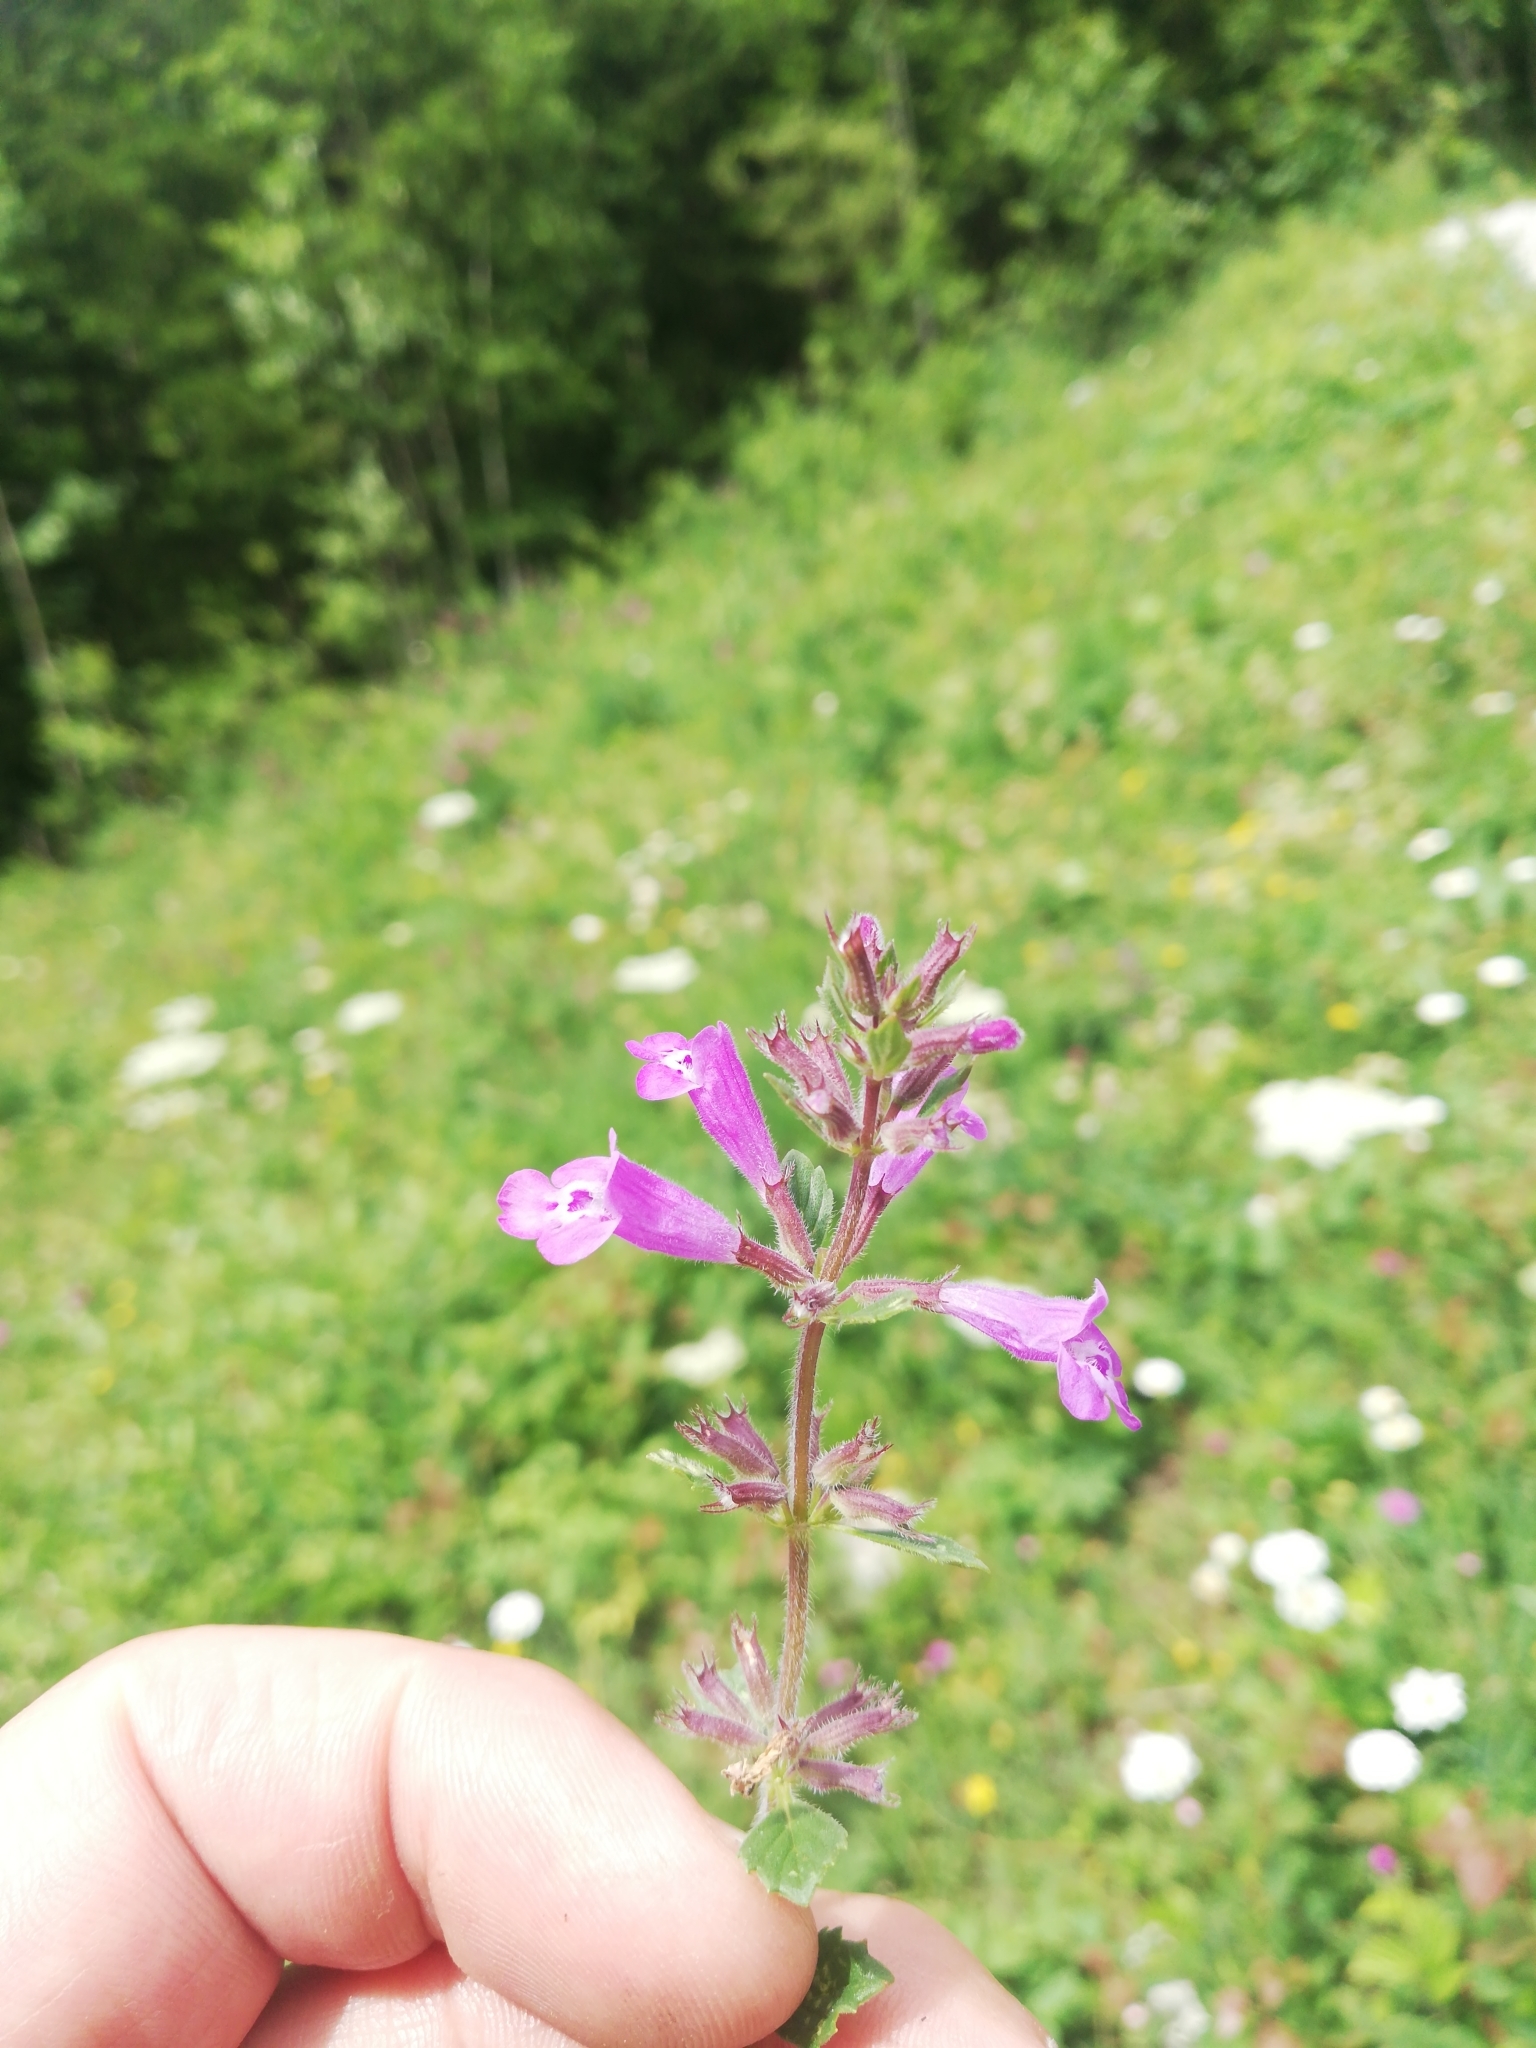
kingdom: Plantae
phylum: Tracheophyta
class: Magnoliopsida
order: Lamiales
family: Lamiaceae
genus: Clinopodium
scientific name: Clinopodium alpinum
